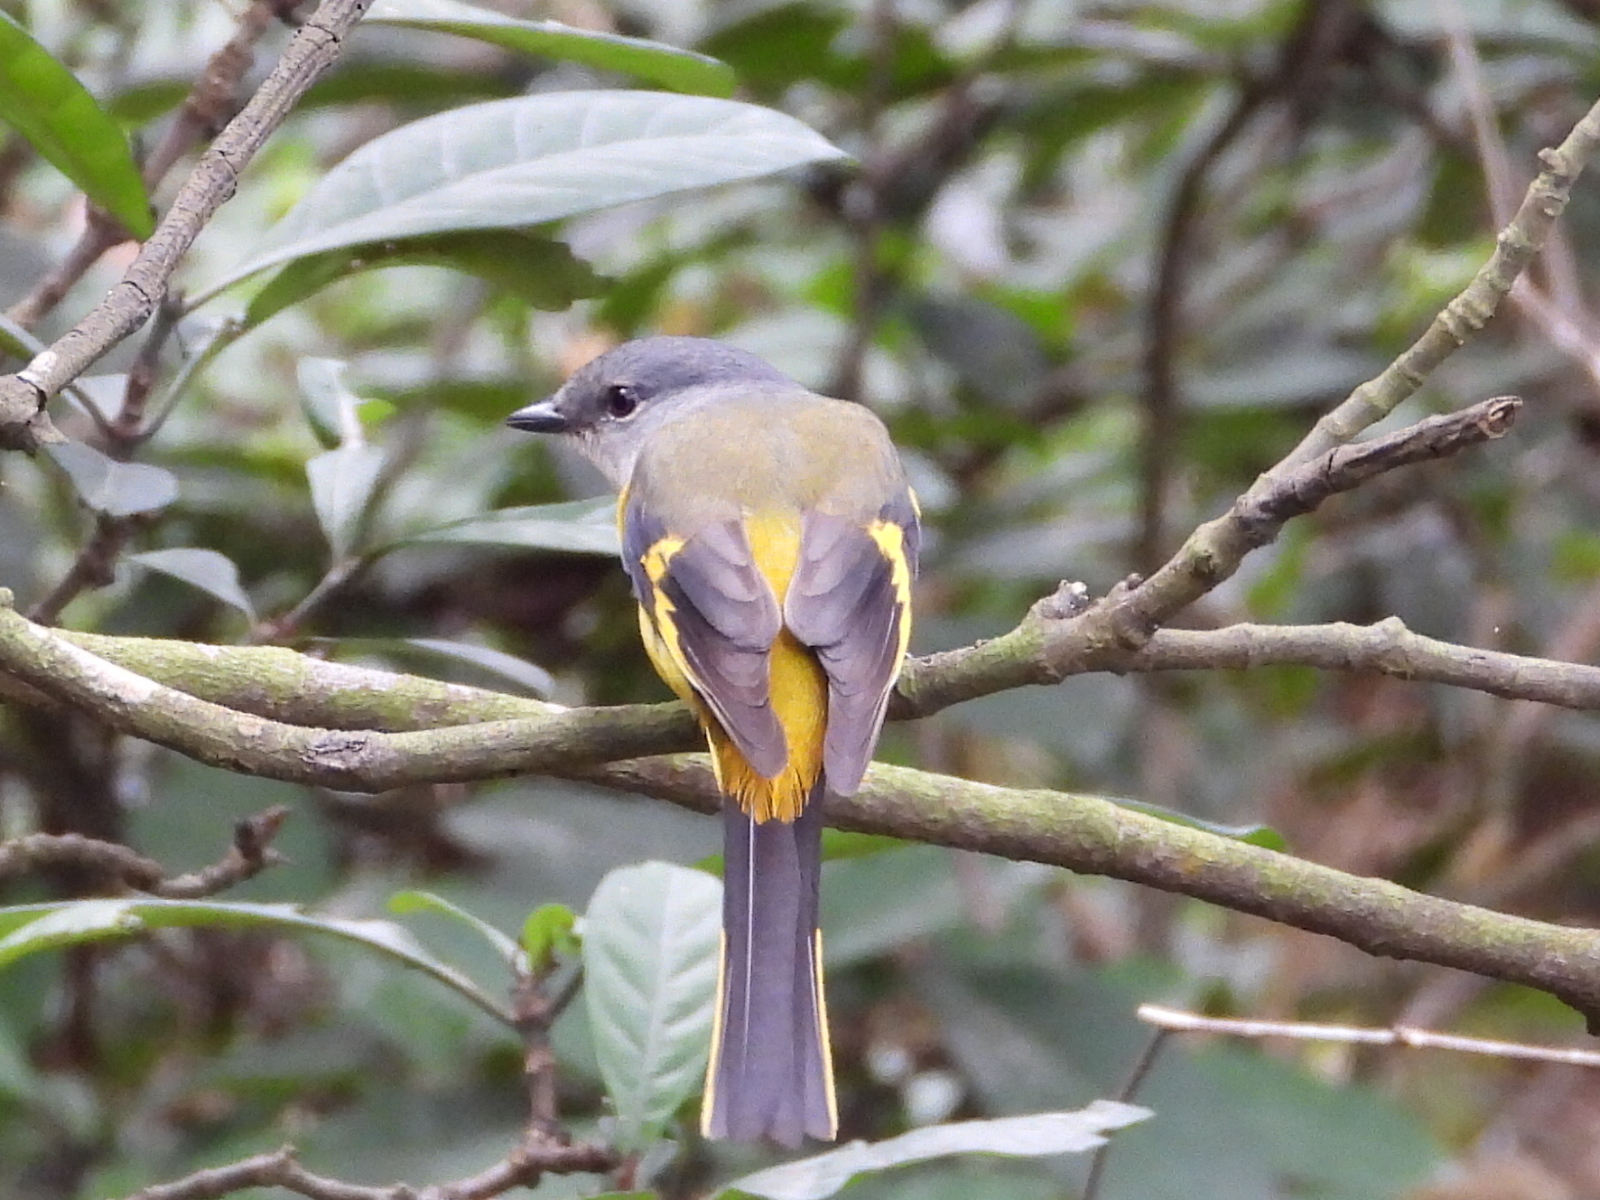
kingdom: Animalia
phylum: Chordata
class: Aves
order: Passeriformes
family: Campephagidae
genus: Pericrocotus
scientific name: Pericrocotus solaris
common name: Grey-chinned minivet
